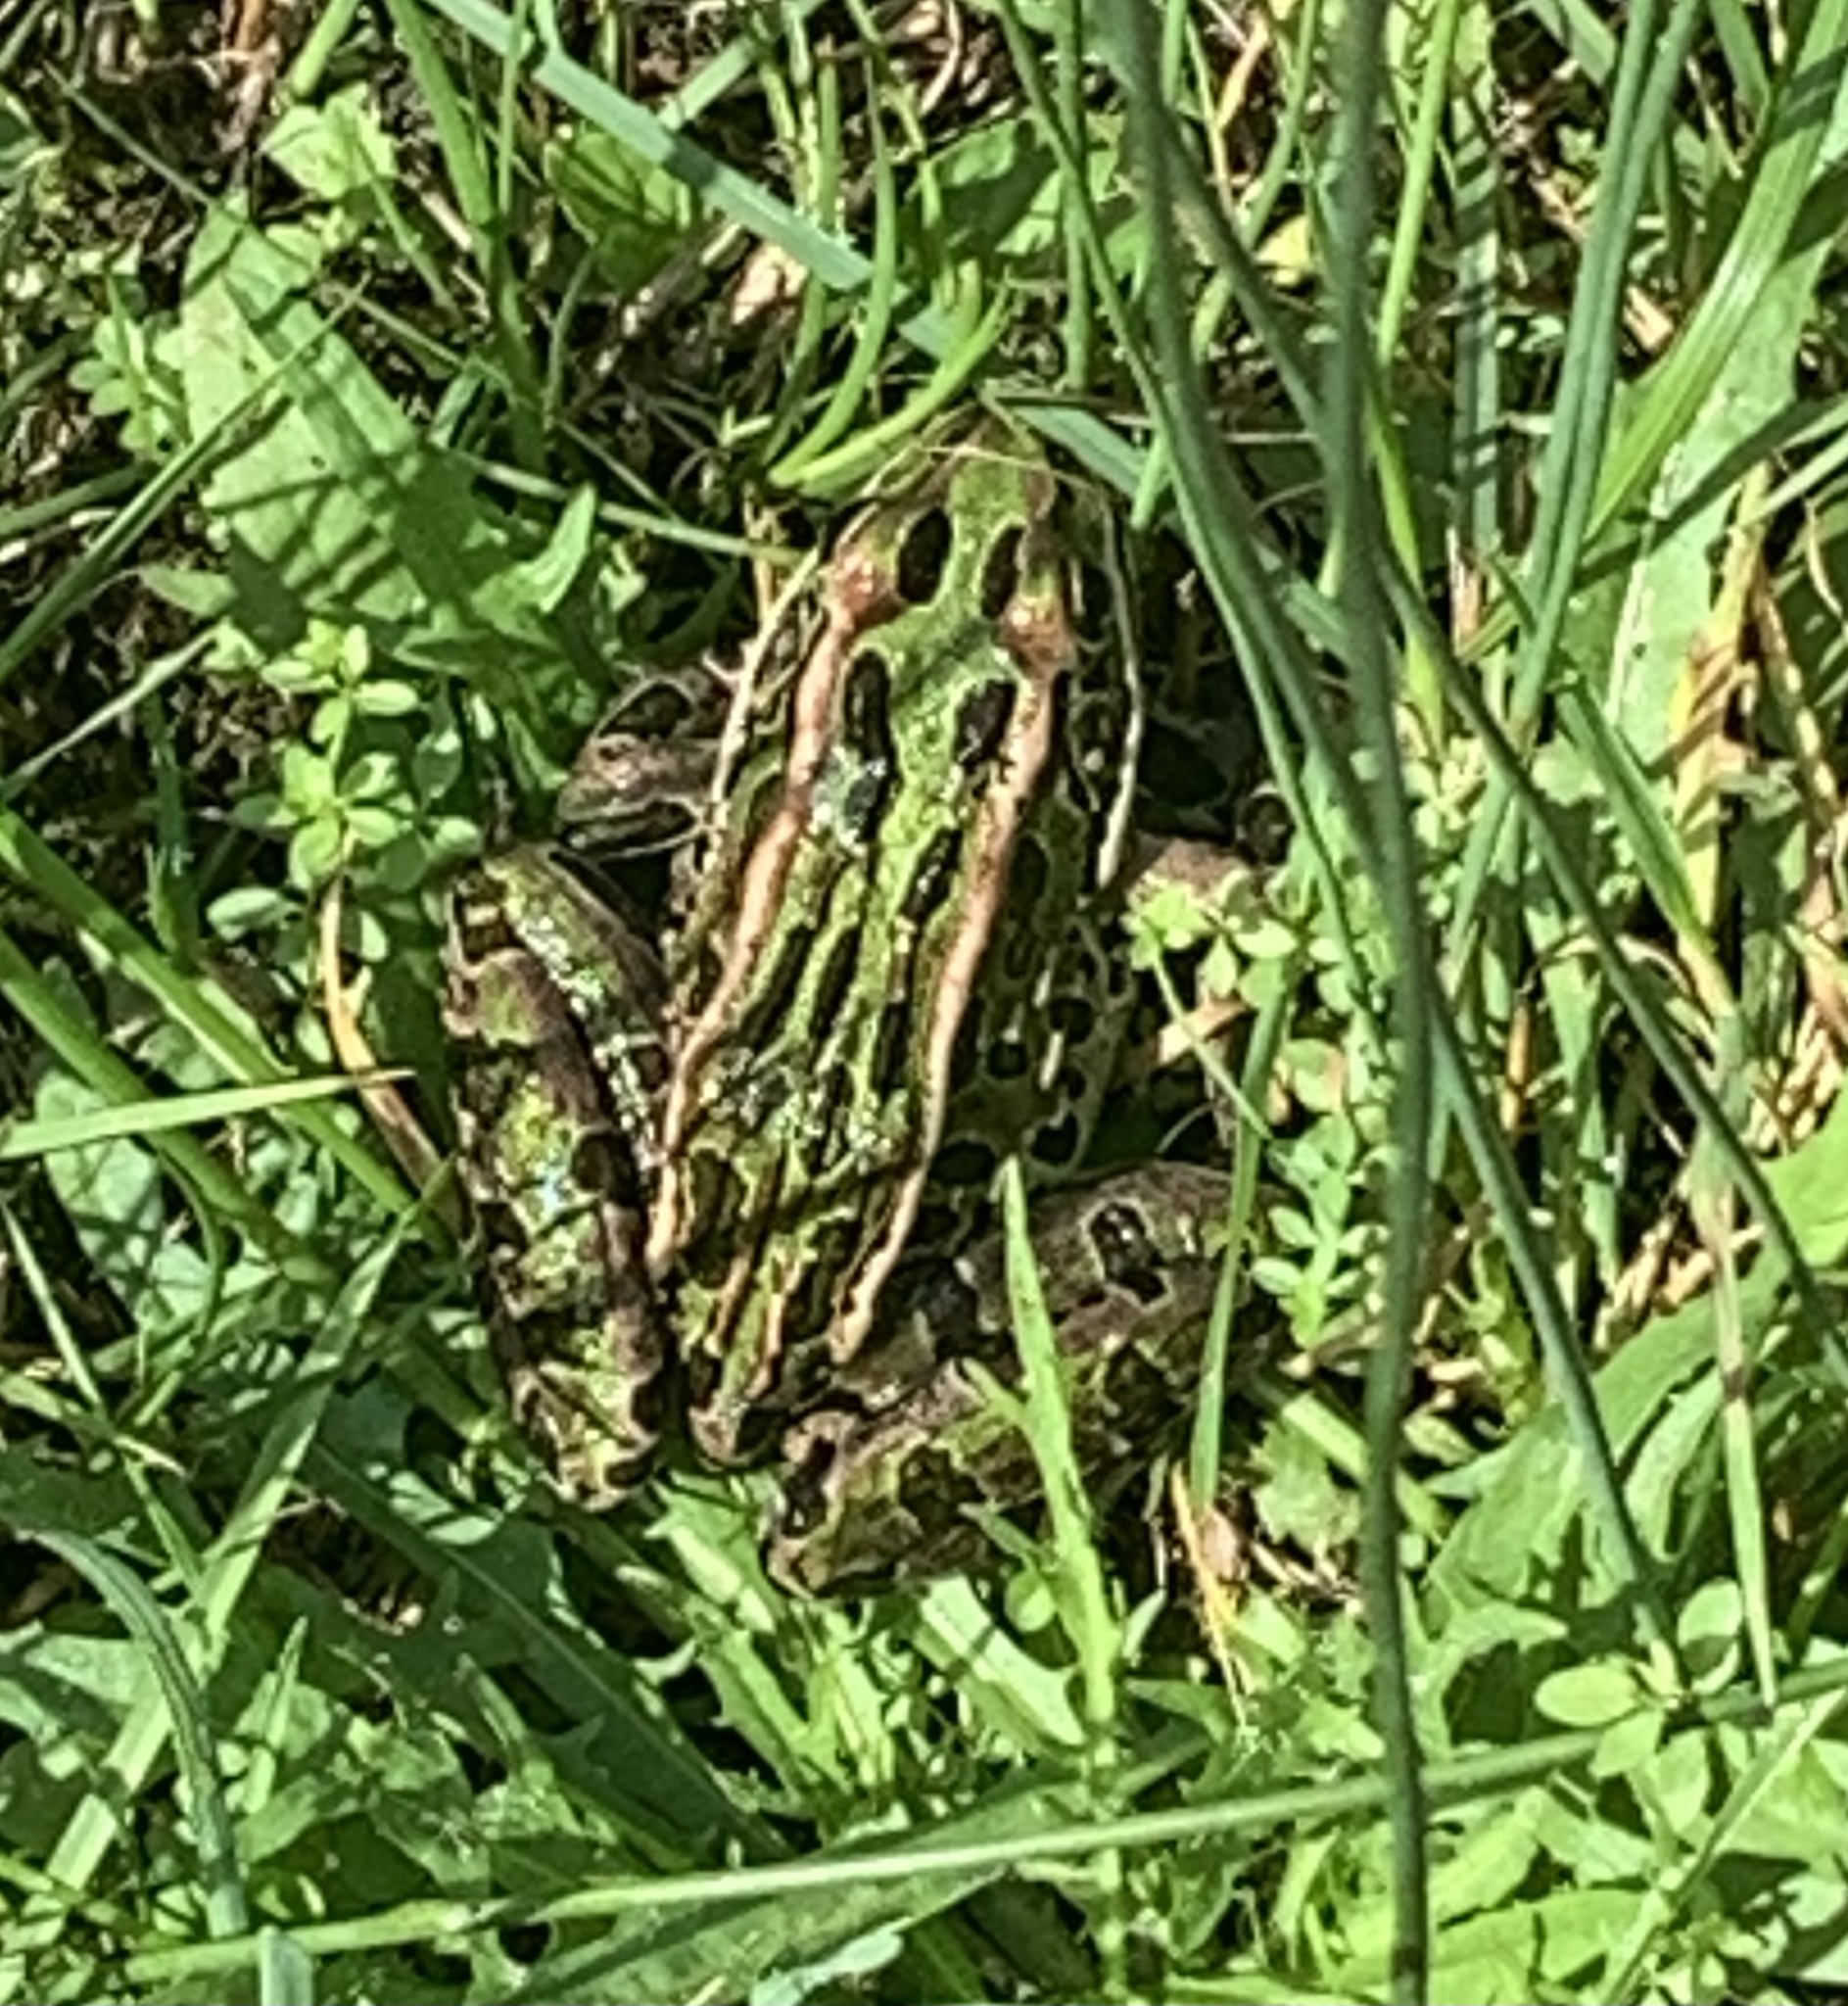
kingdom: Animalia
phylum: Chordata
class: Amphibia
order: Anura
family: Ranidae
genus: Lithobates
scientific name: Lithobates pipiens
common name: Northern leopard frog
